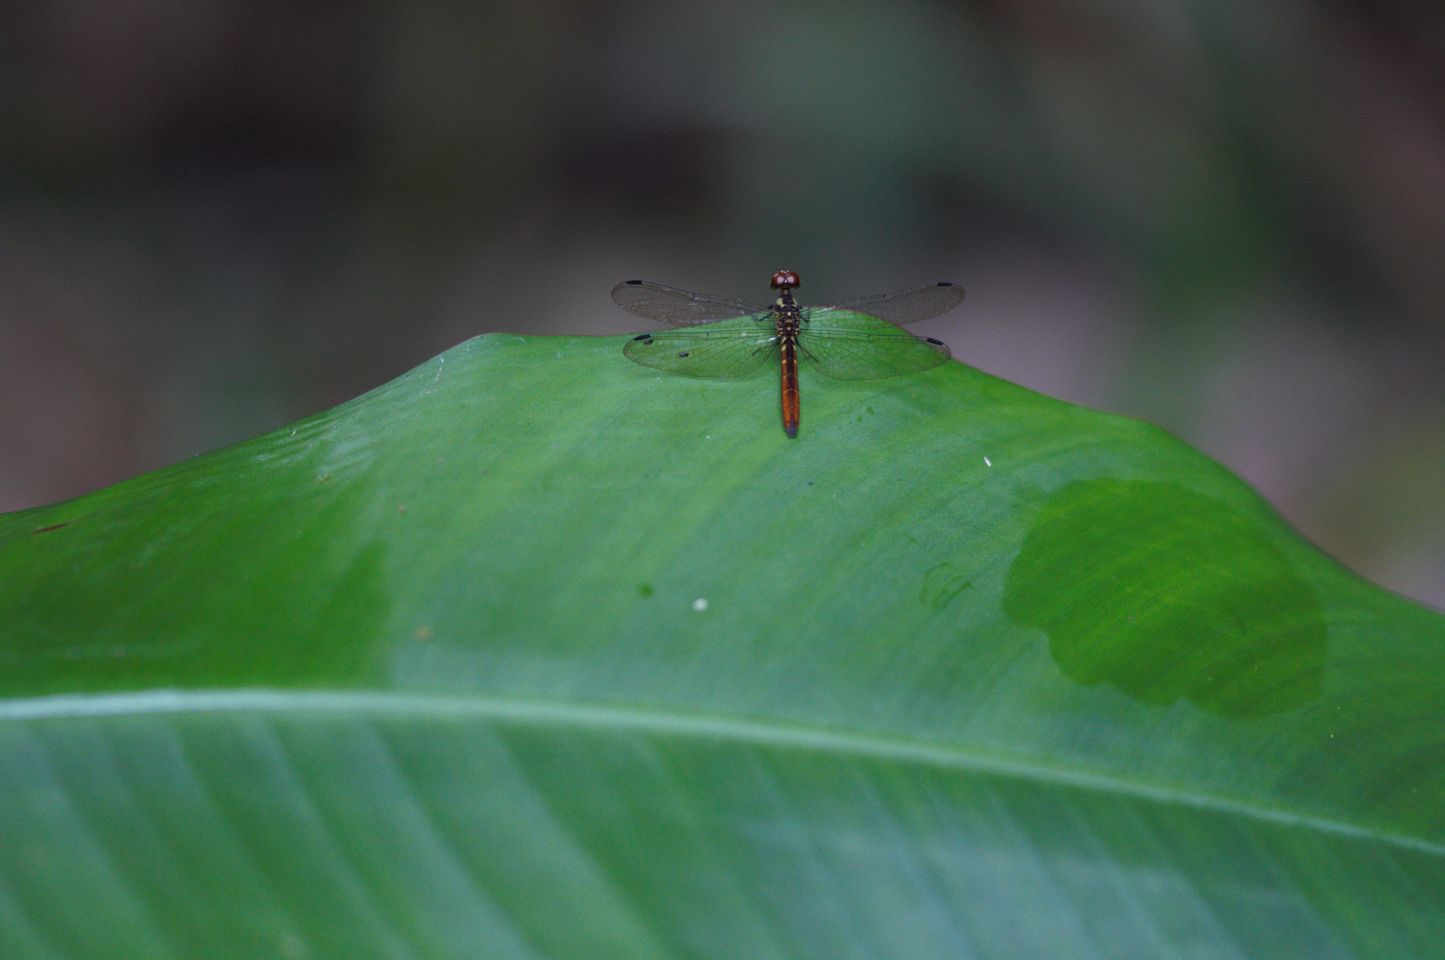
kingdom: Animalia
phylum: Arthropoda
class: Insecta
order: Odonata
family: Libellulidae
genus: Fylgia
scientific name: Fylgia amazonica
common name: White-eyed skimmer
